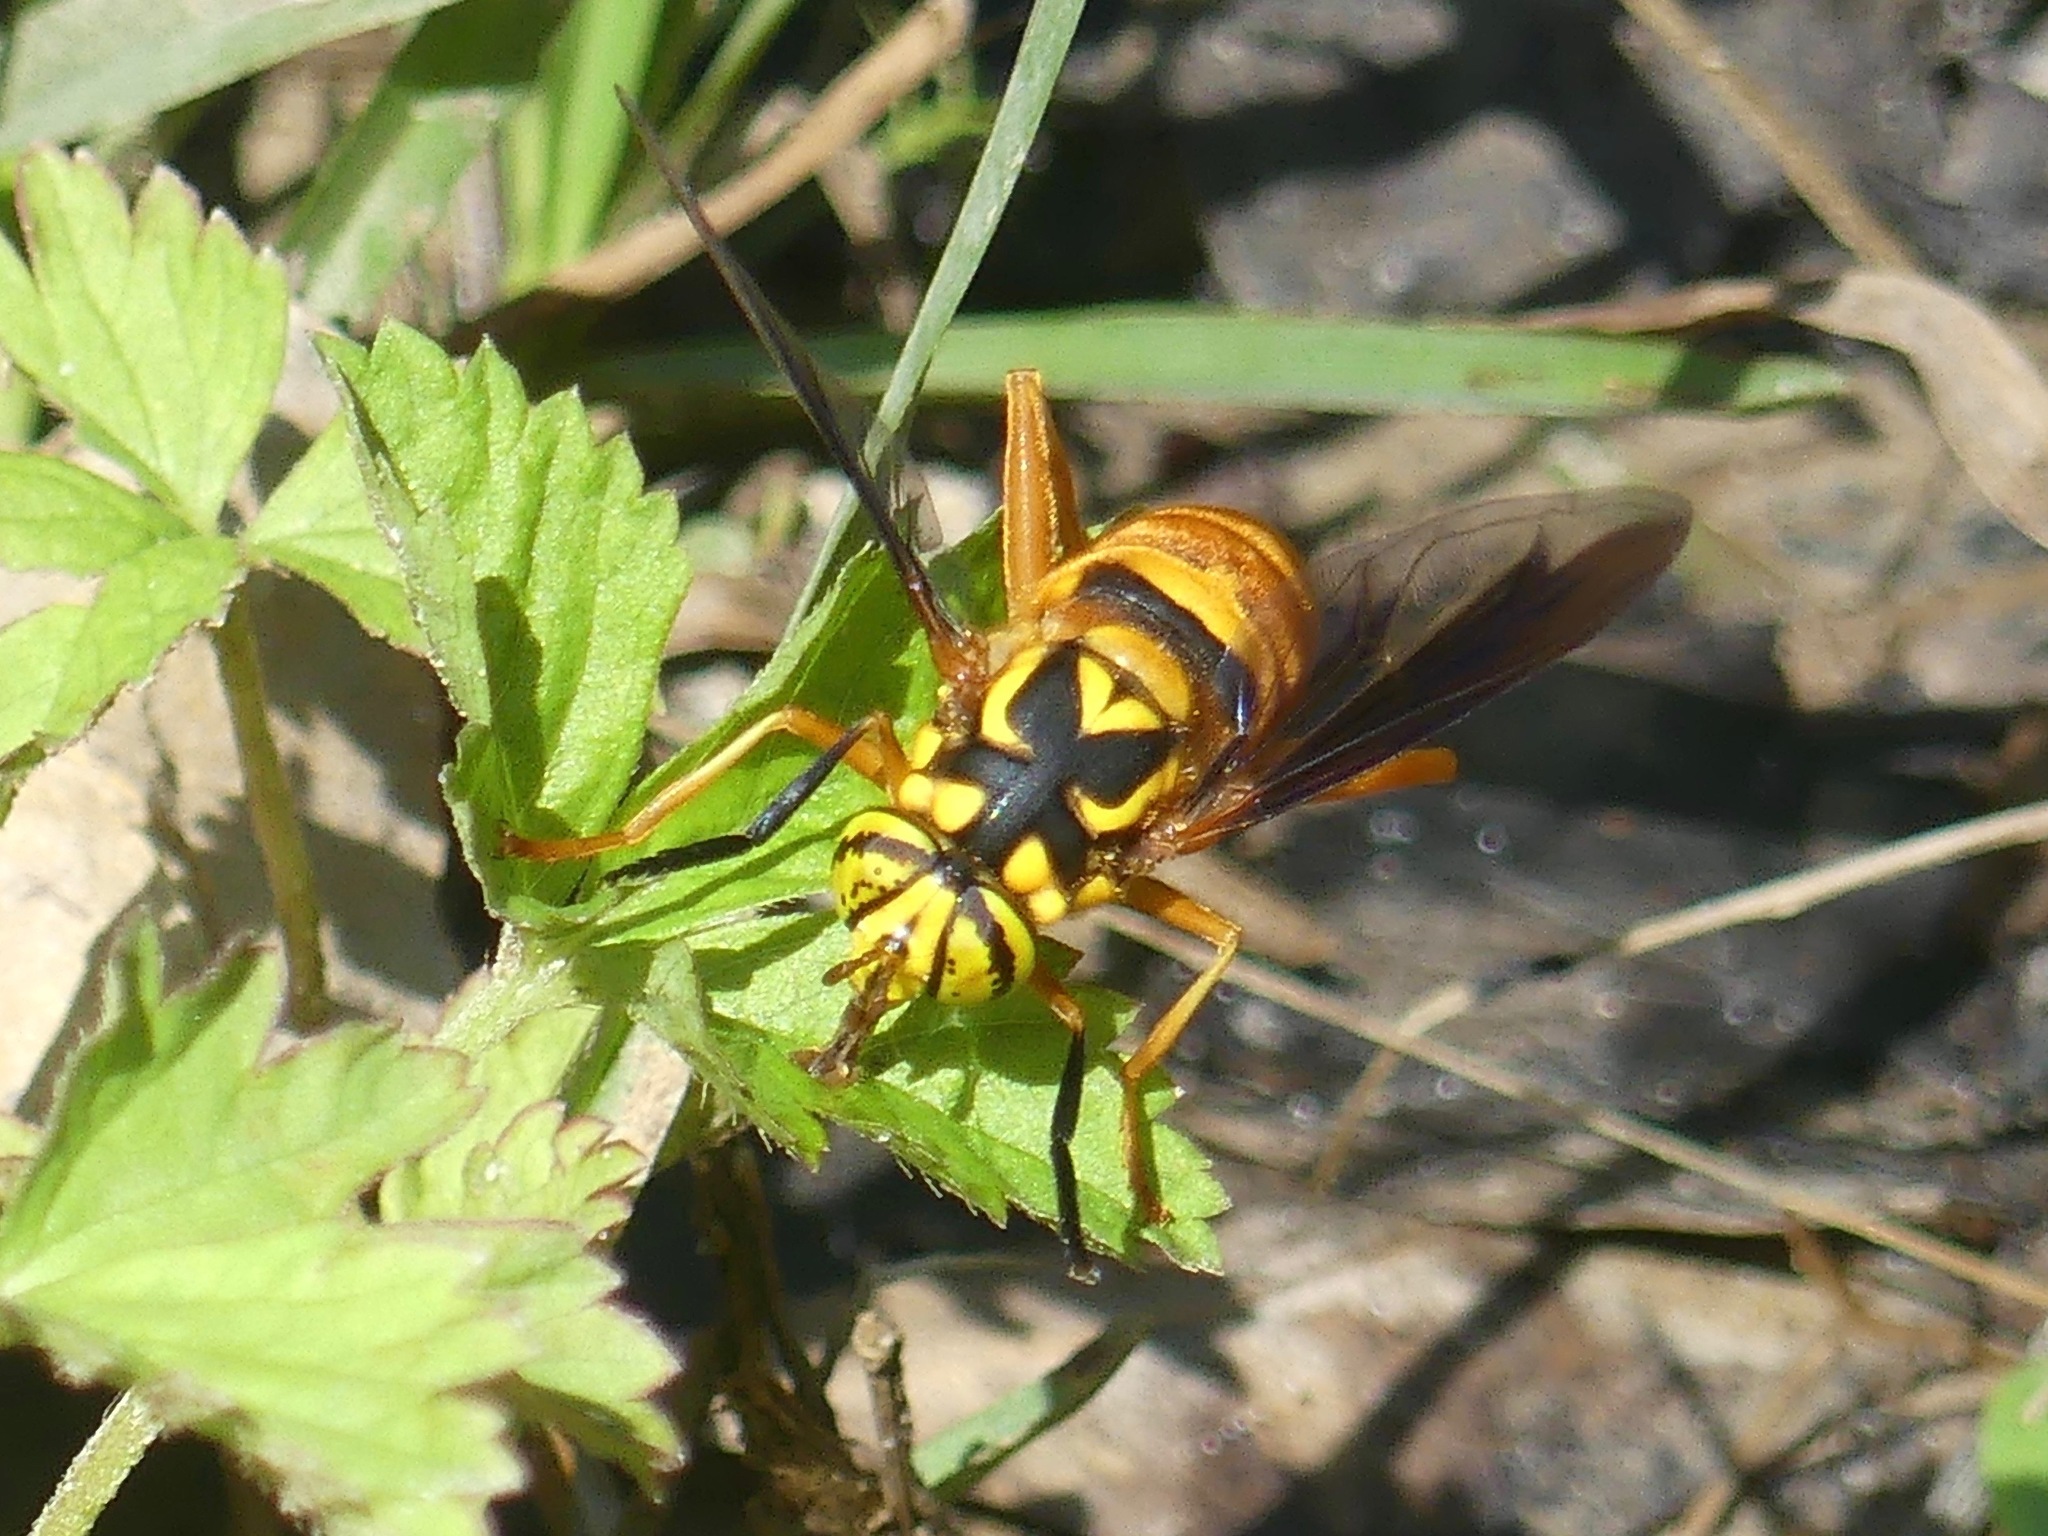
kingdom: Animalia
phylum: Arthropoda
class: Insecta
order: Diptera
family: Syrphidae
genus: Spilomyia
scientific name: Spilomyia
